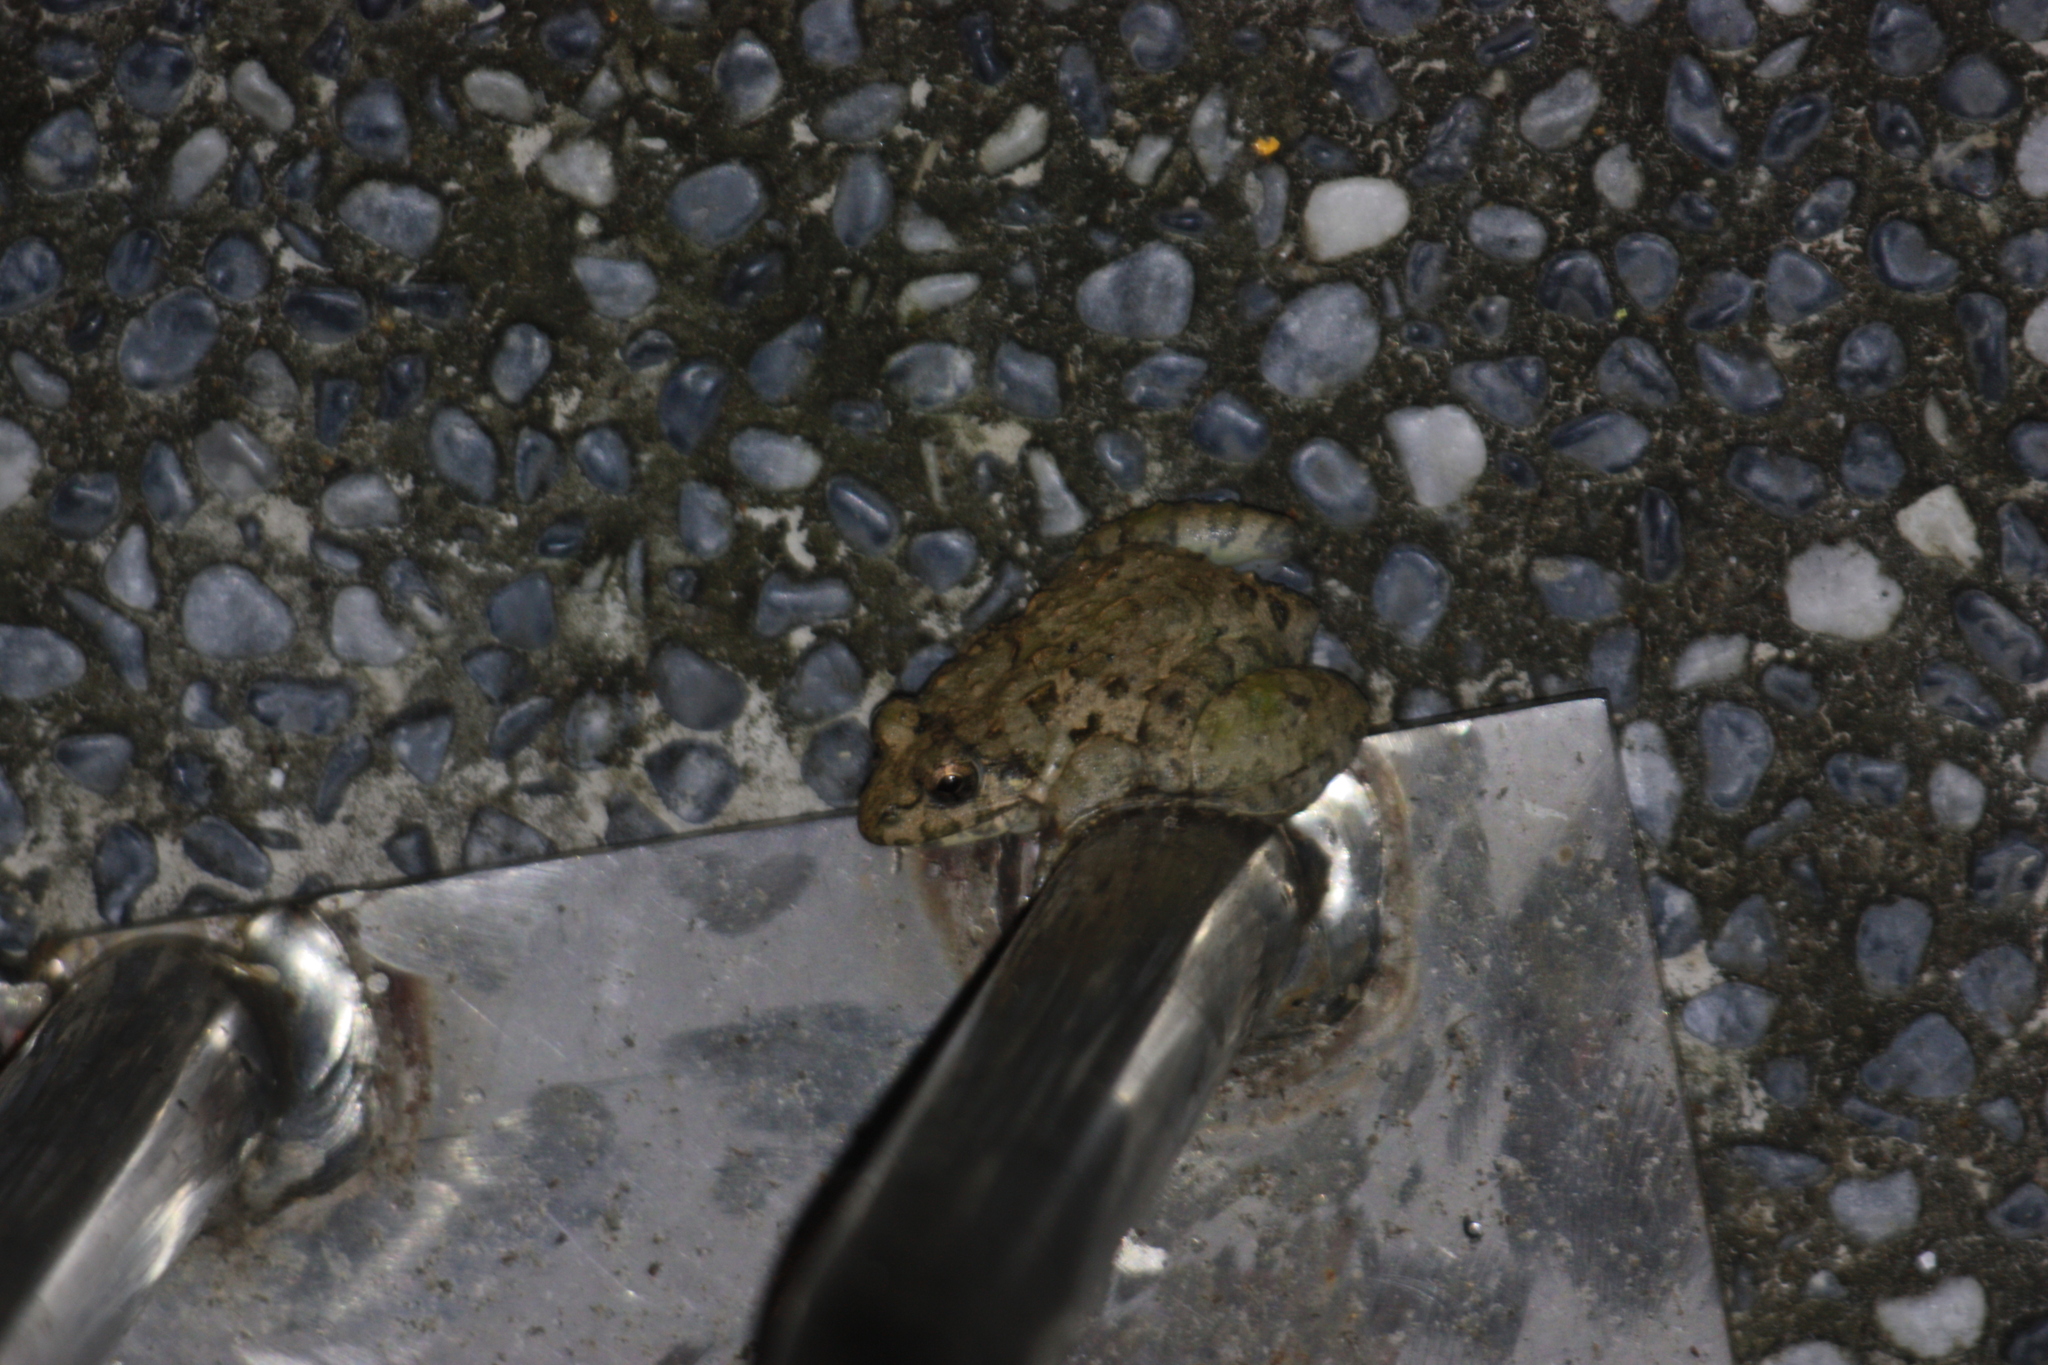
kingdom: Animalia
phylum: Chordata
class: Amphibia
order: Anura
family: Dicroglossidae
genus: Fejervarya
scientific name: Fejervarya limnocharis
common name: Asian grass frog/common pond frog/field frog/grass frog/indian rice frog
